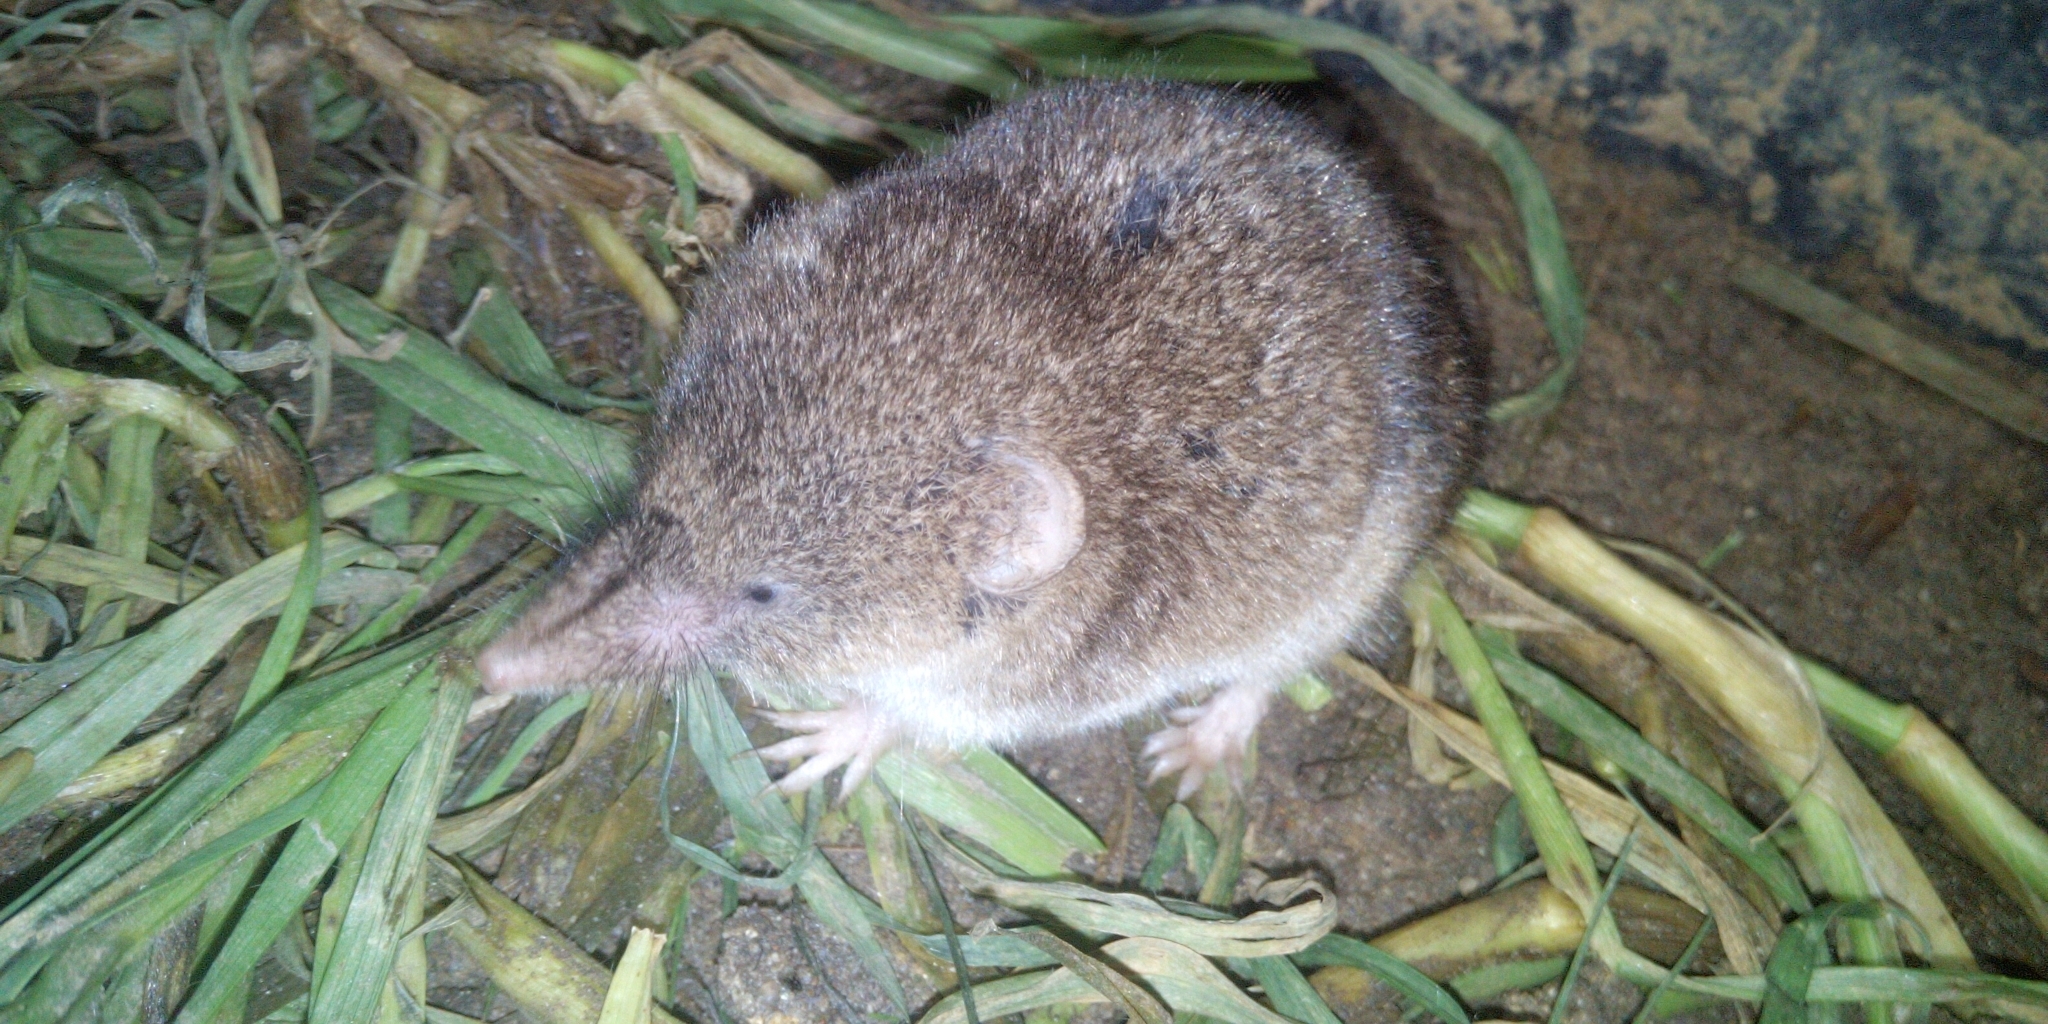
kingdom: Animalia
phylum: Chordata
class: Mammalia
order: Soricomorpha
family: Soricidae
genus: Myosorex
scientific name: Myosorex varius
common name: Forest shrew
